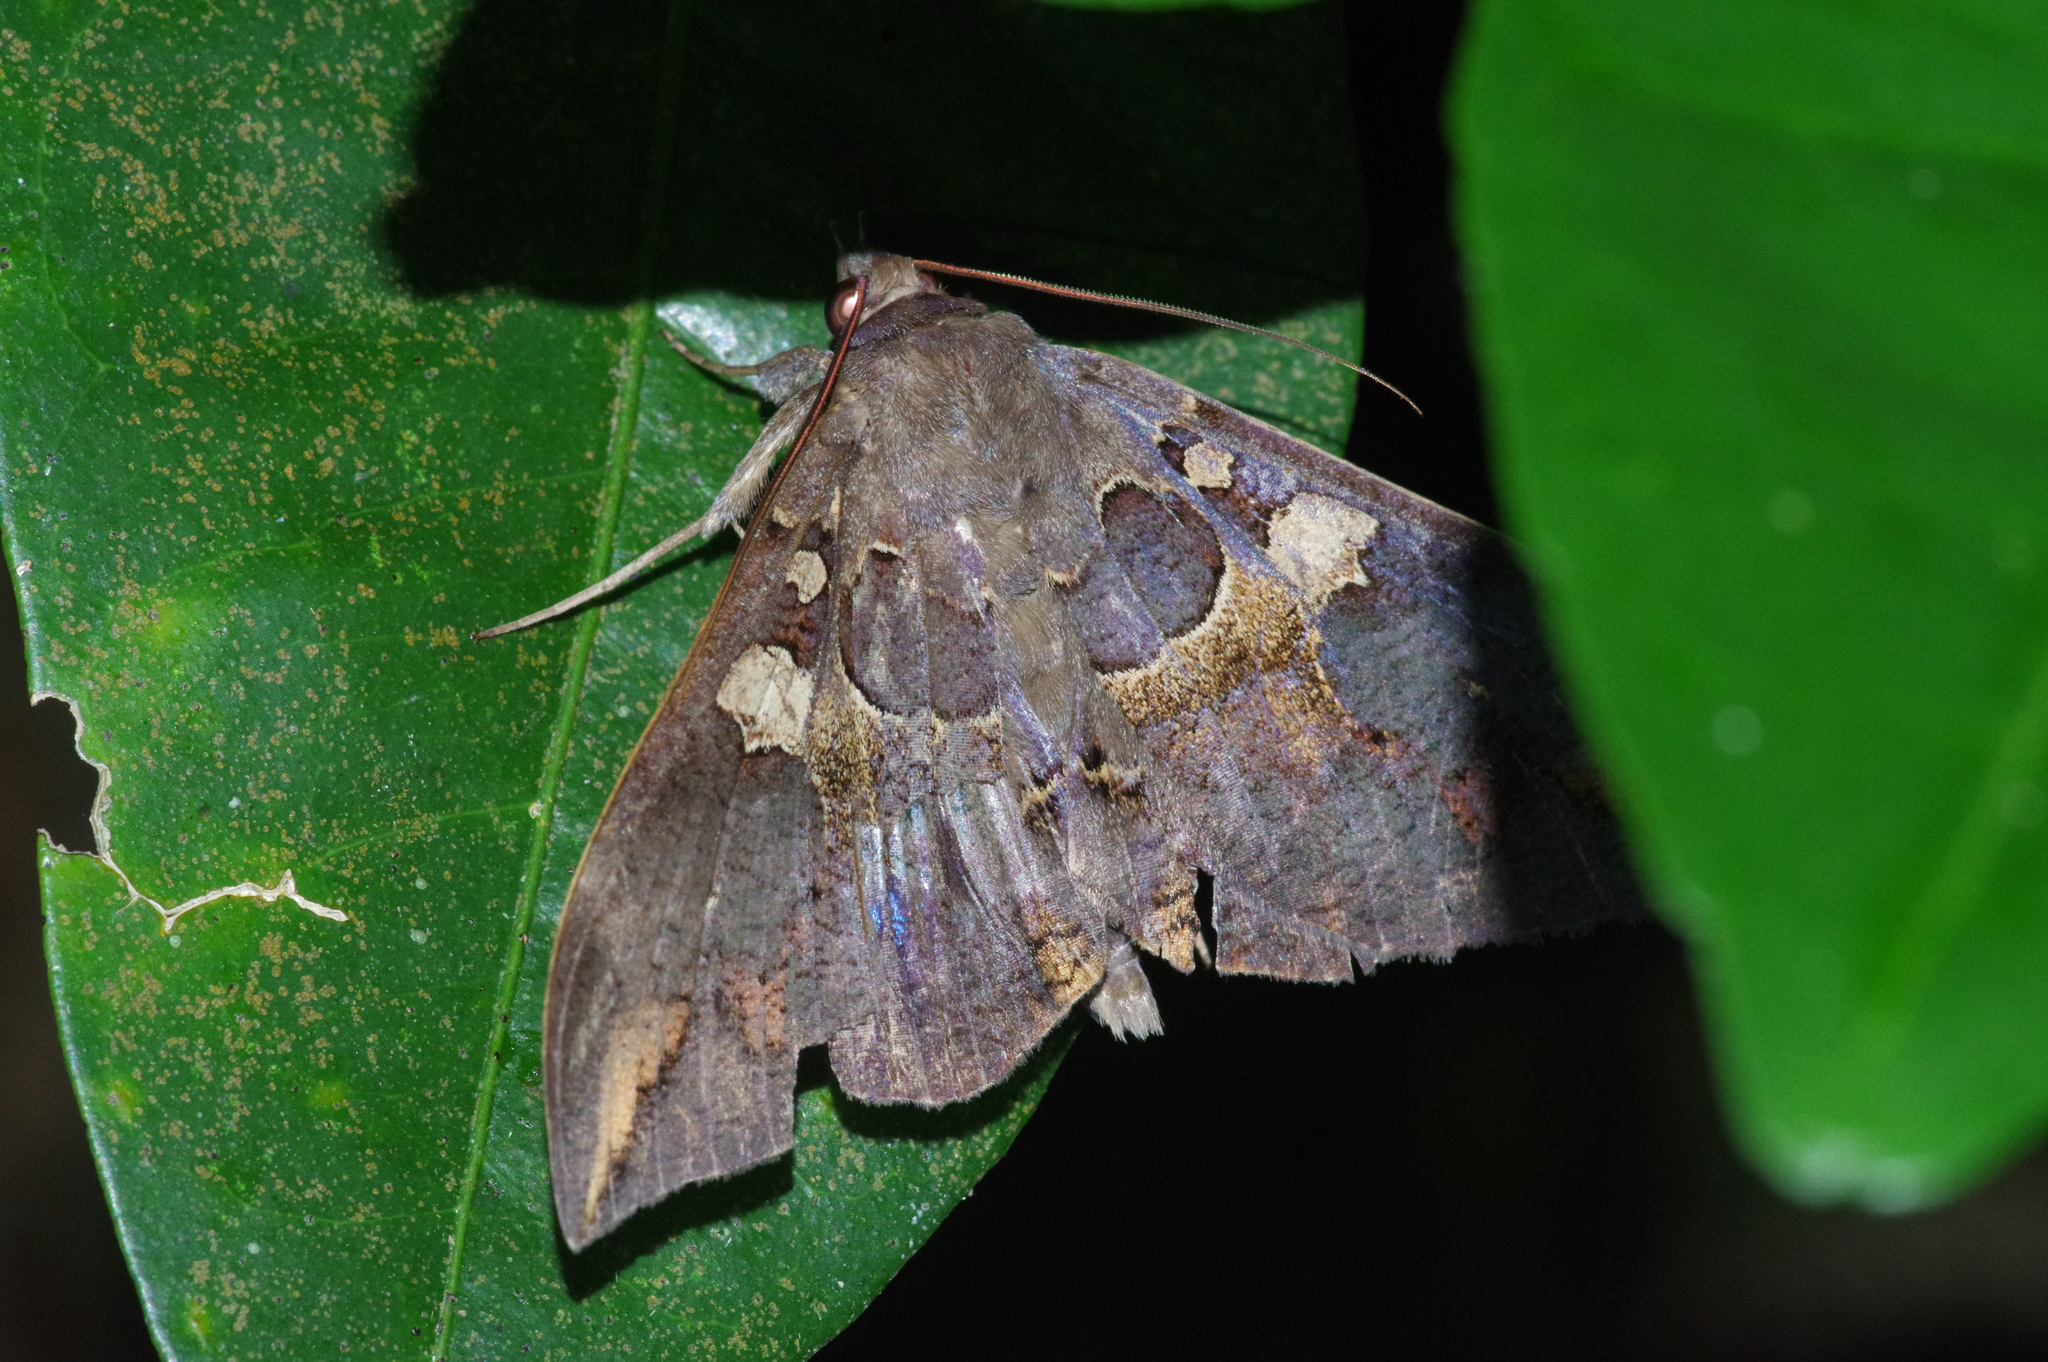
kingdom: Animalia
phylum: Arthropoda
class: Insecta
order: Lepidoptera
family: Erebidae
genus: Ischyja
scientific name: Ischyja ferrifracta
